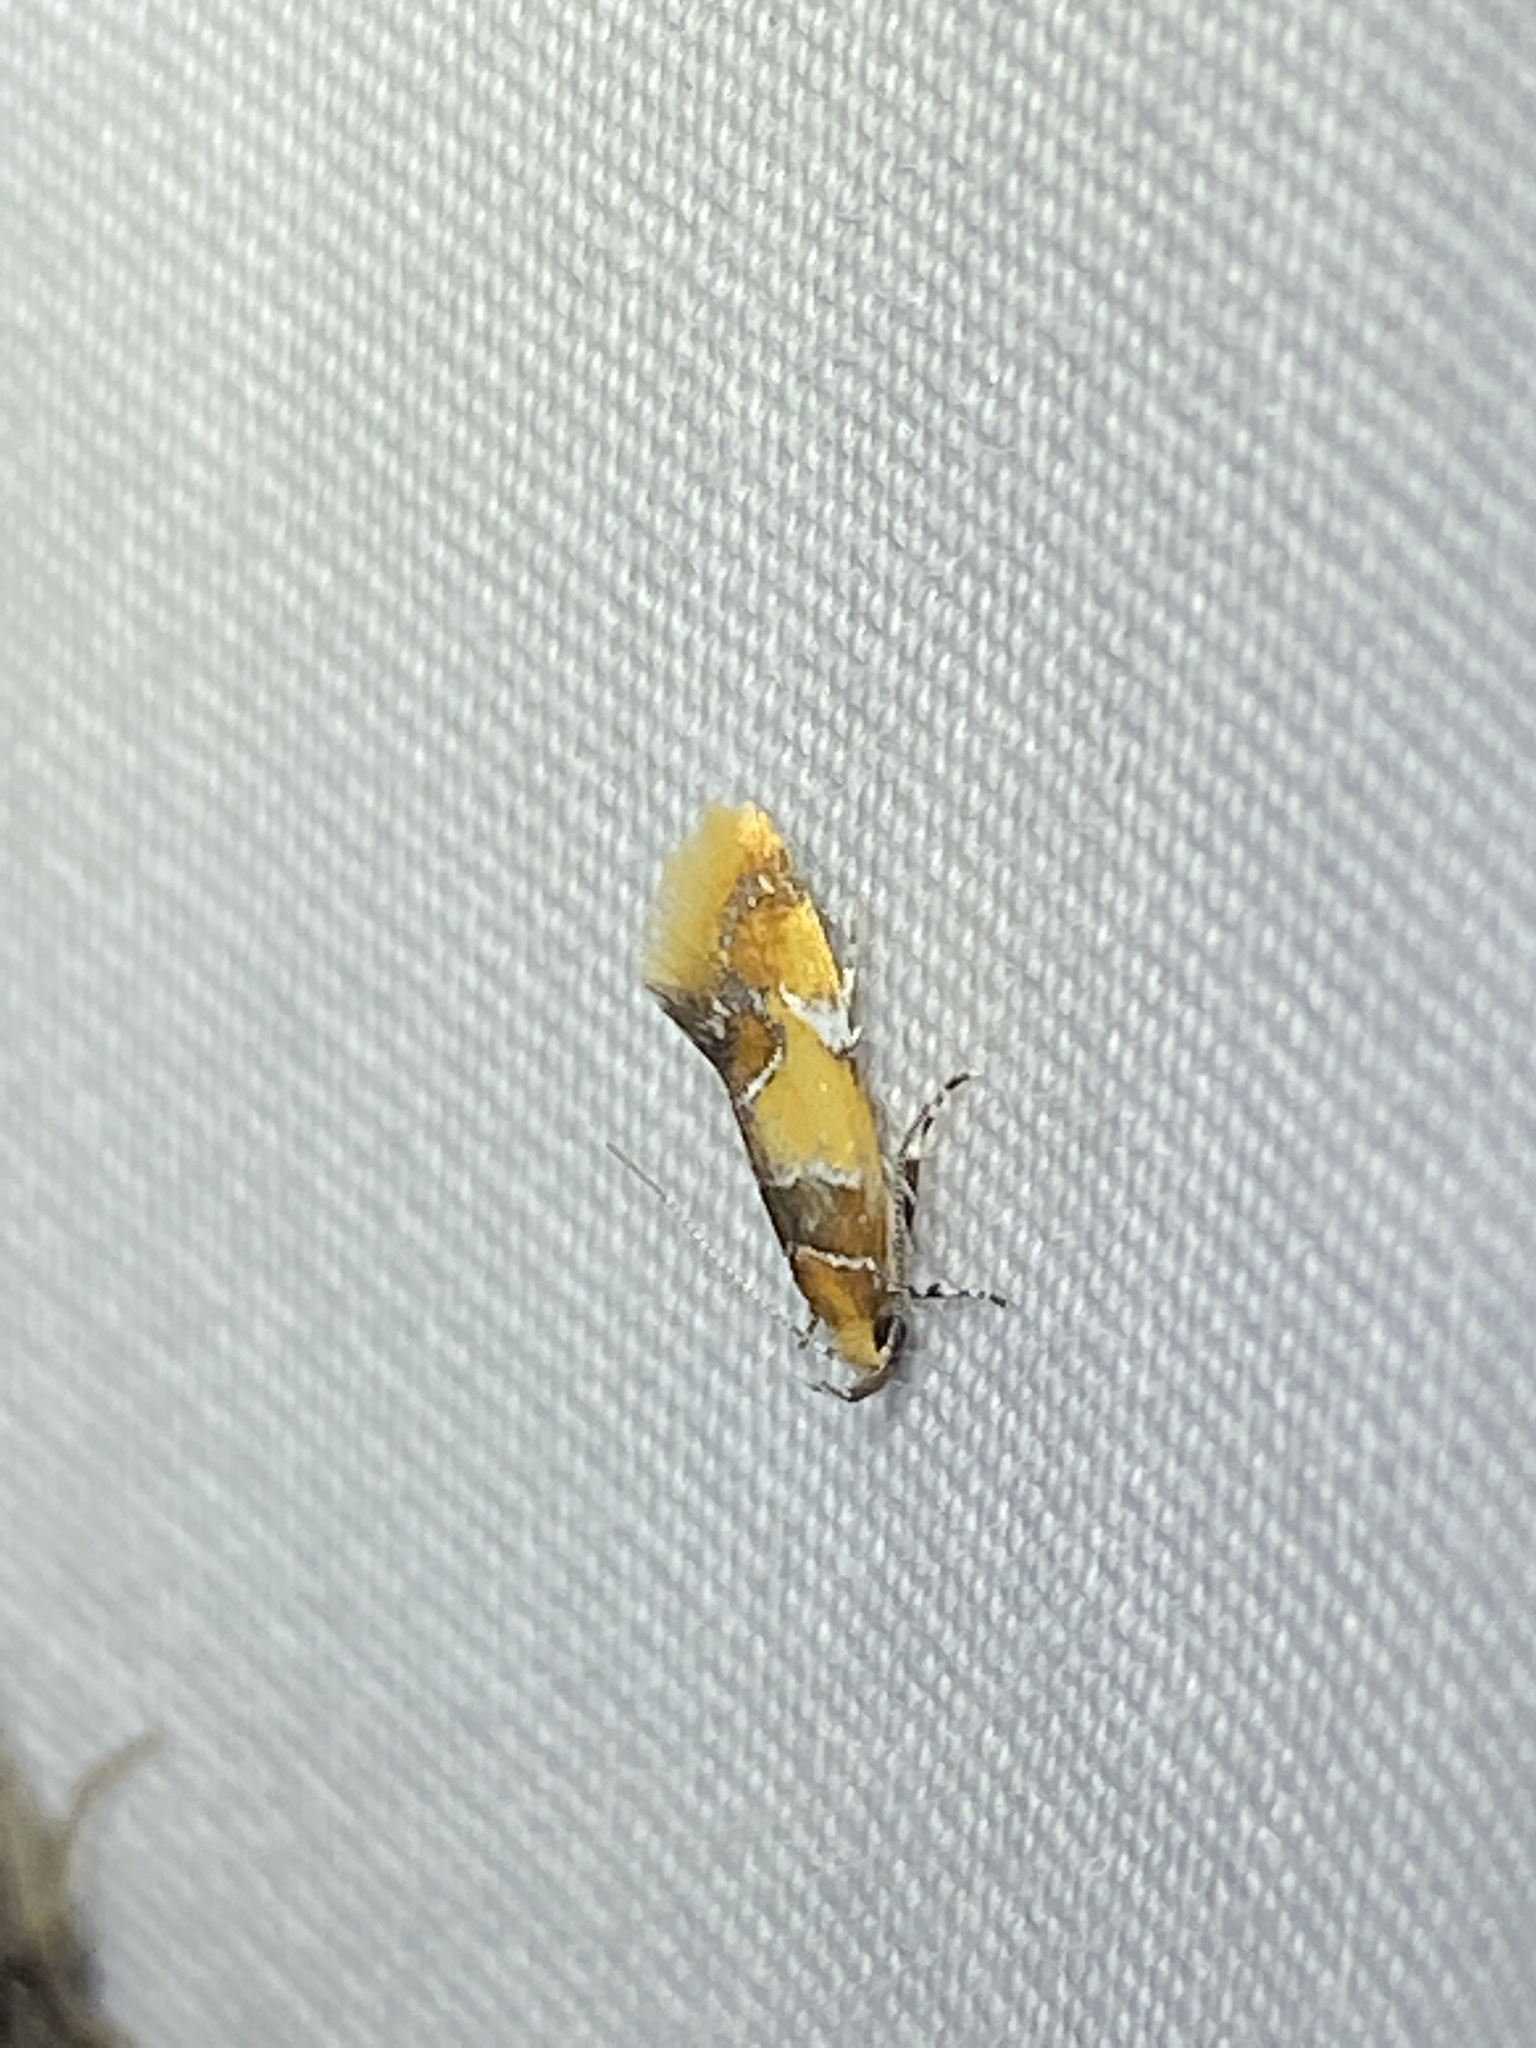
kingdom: Animalia
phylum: Arthropoda
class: Insecta
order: Lepidoptera
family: Oecophoridae
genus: Callima
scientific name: Callima argenticinctella
